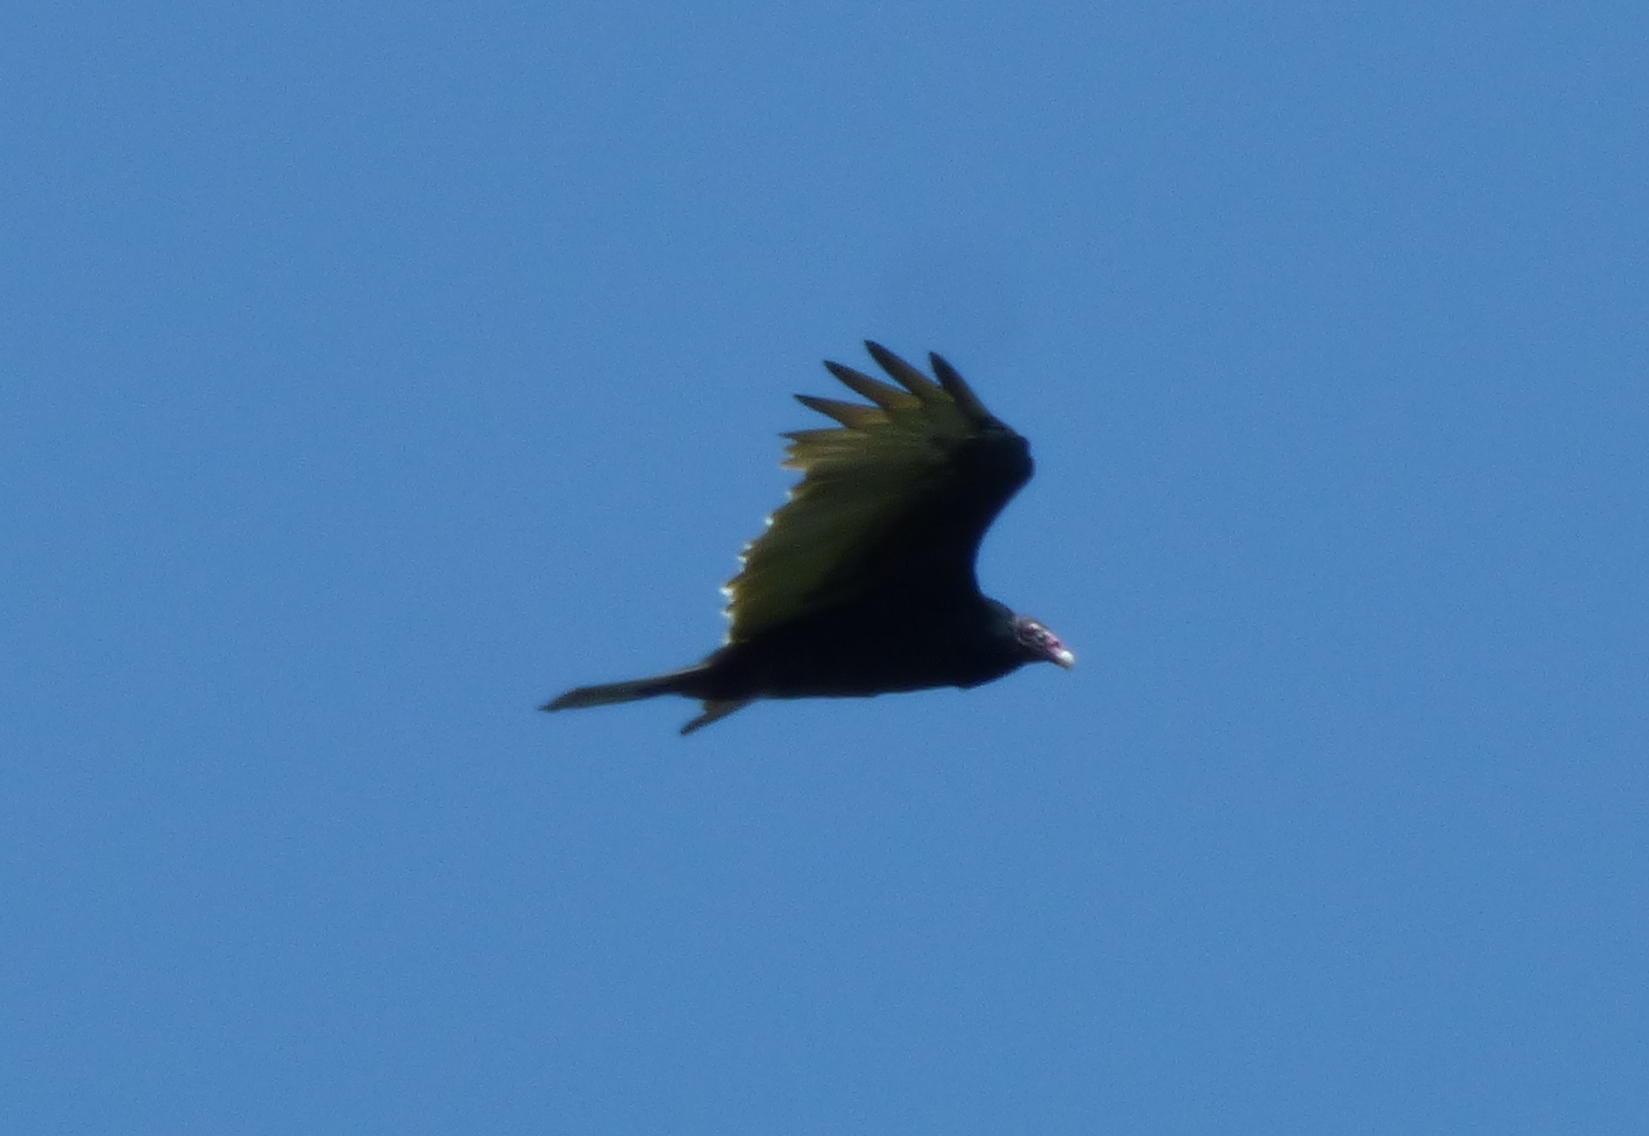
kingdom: Animalia
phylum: Chordata
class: Aves
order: Accipitriformes
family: Cathartidae
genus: Cathartes
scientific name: Cathartes aura
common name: Turkey vulture
